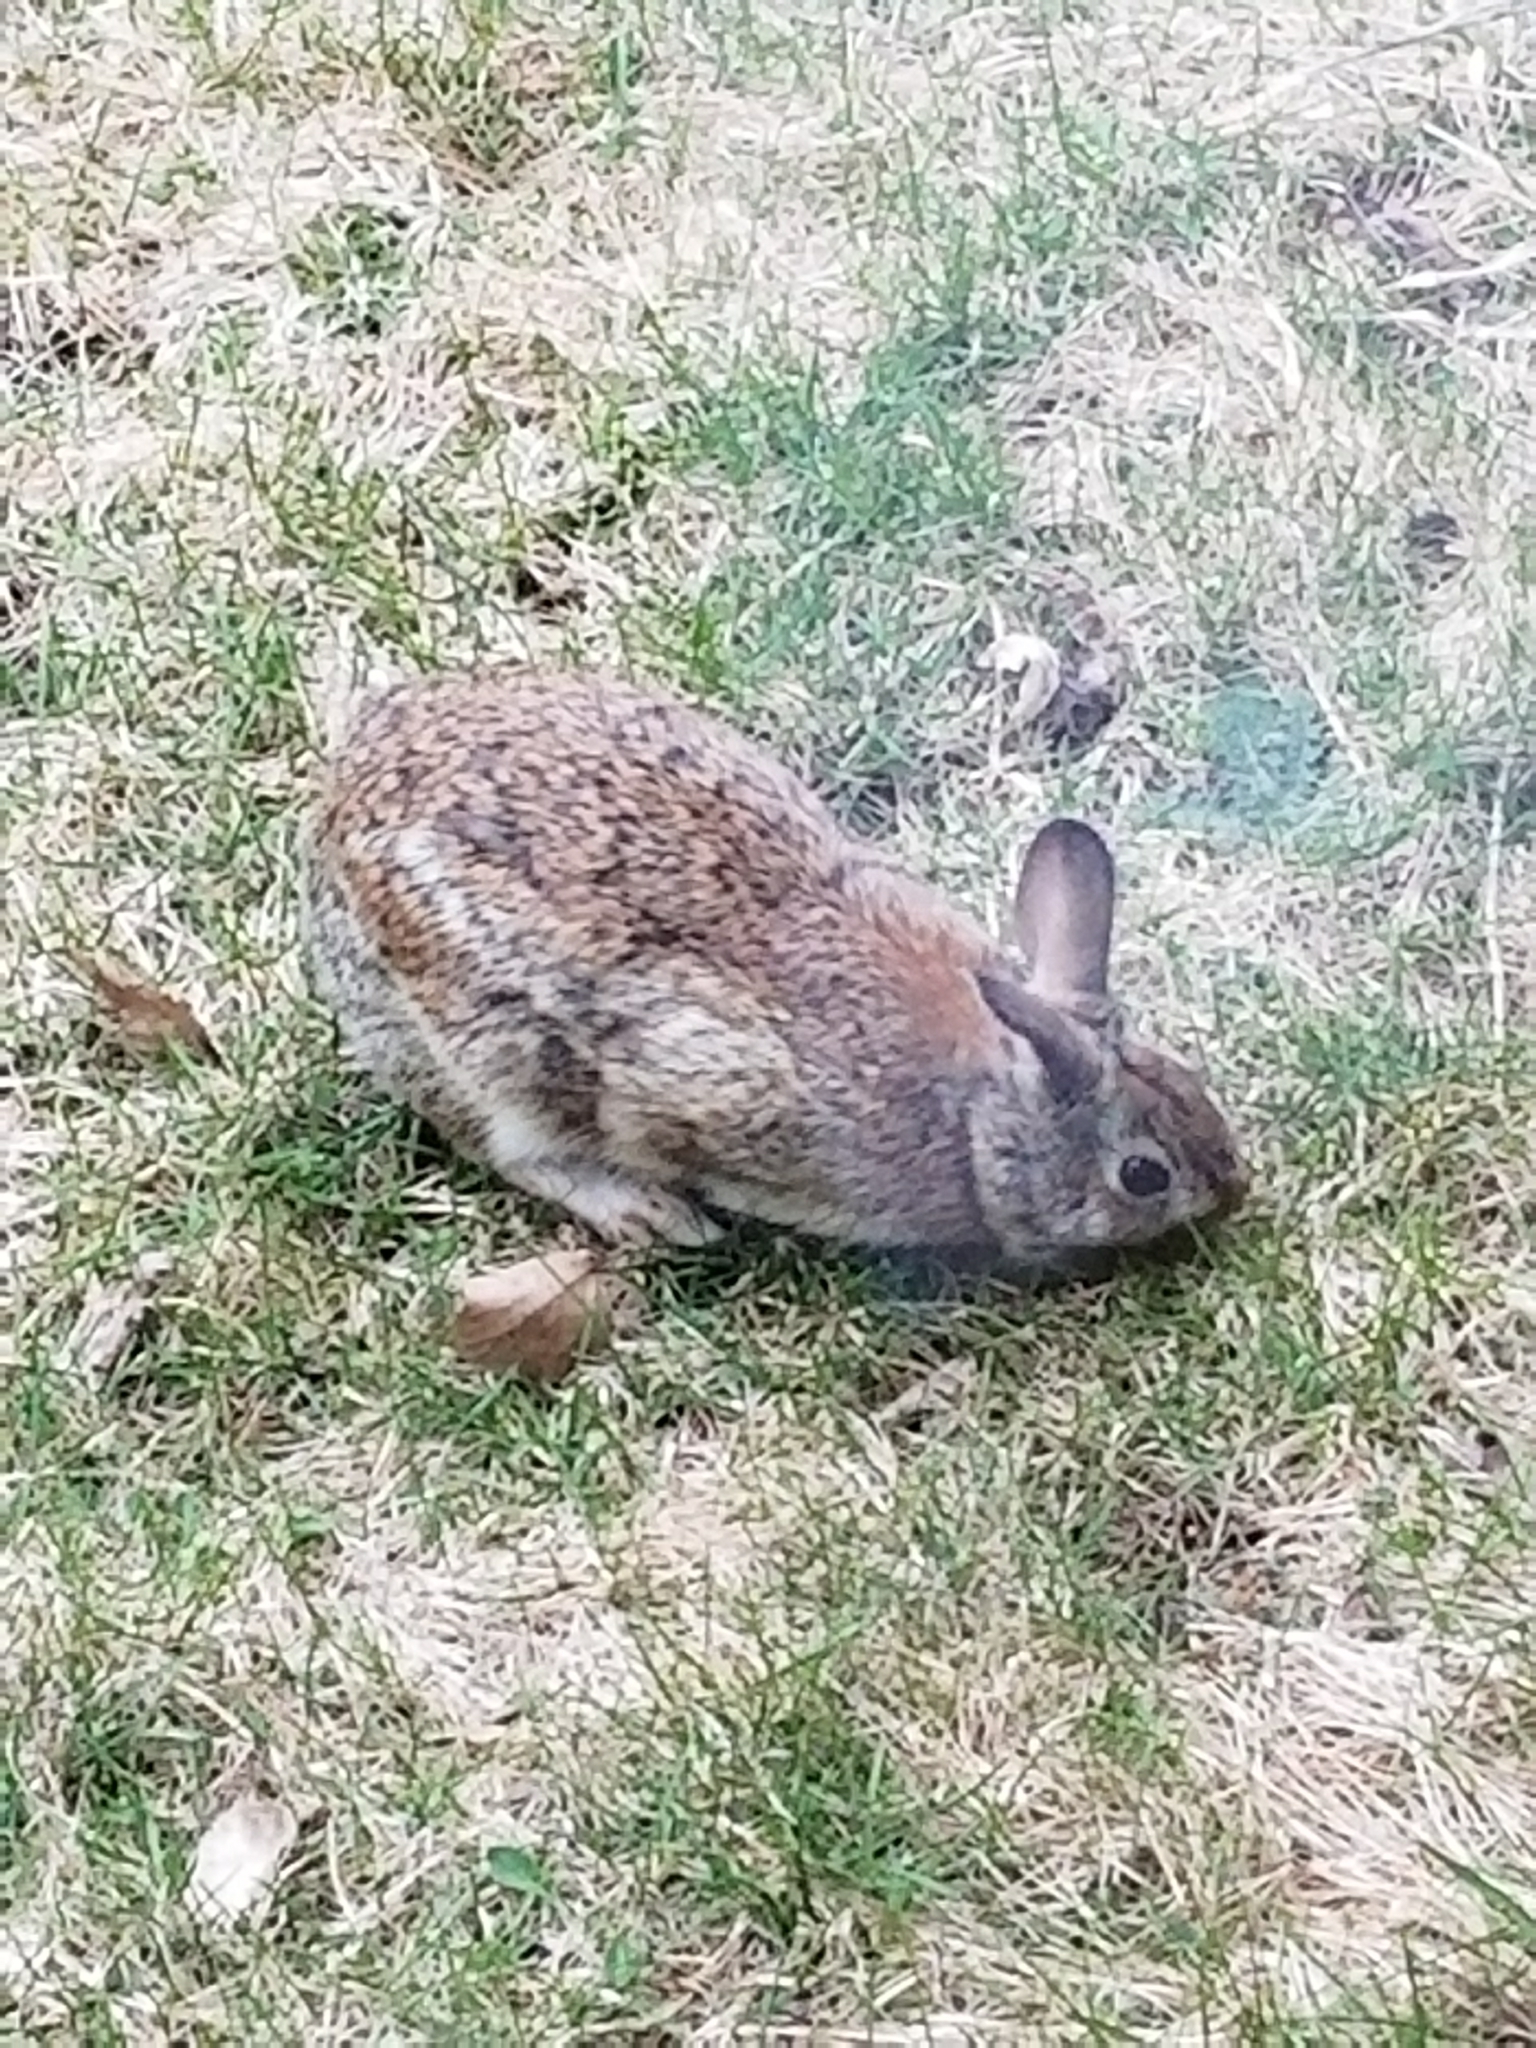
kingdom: Animalia
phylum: Chordata
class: Mammalia
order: Lagomorpha
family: Leporidae
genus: Sylvilagus
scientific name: Sylvilagus floridanus
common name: Eastern cottontail
